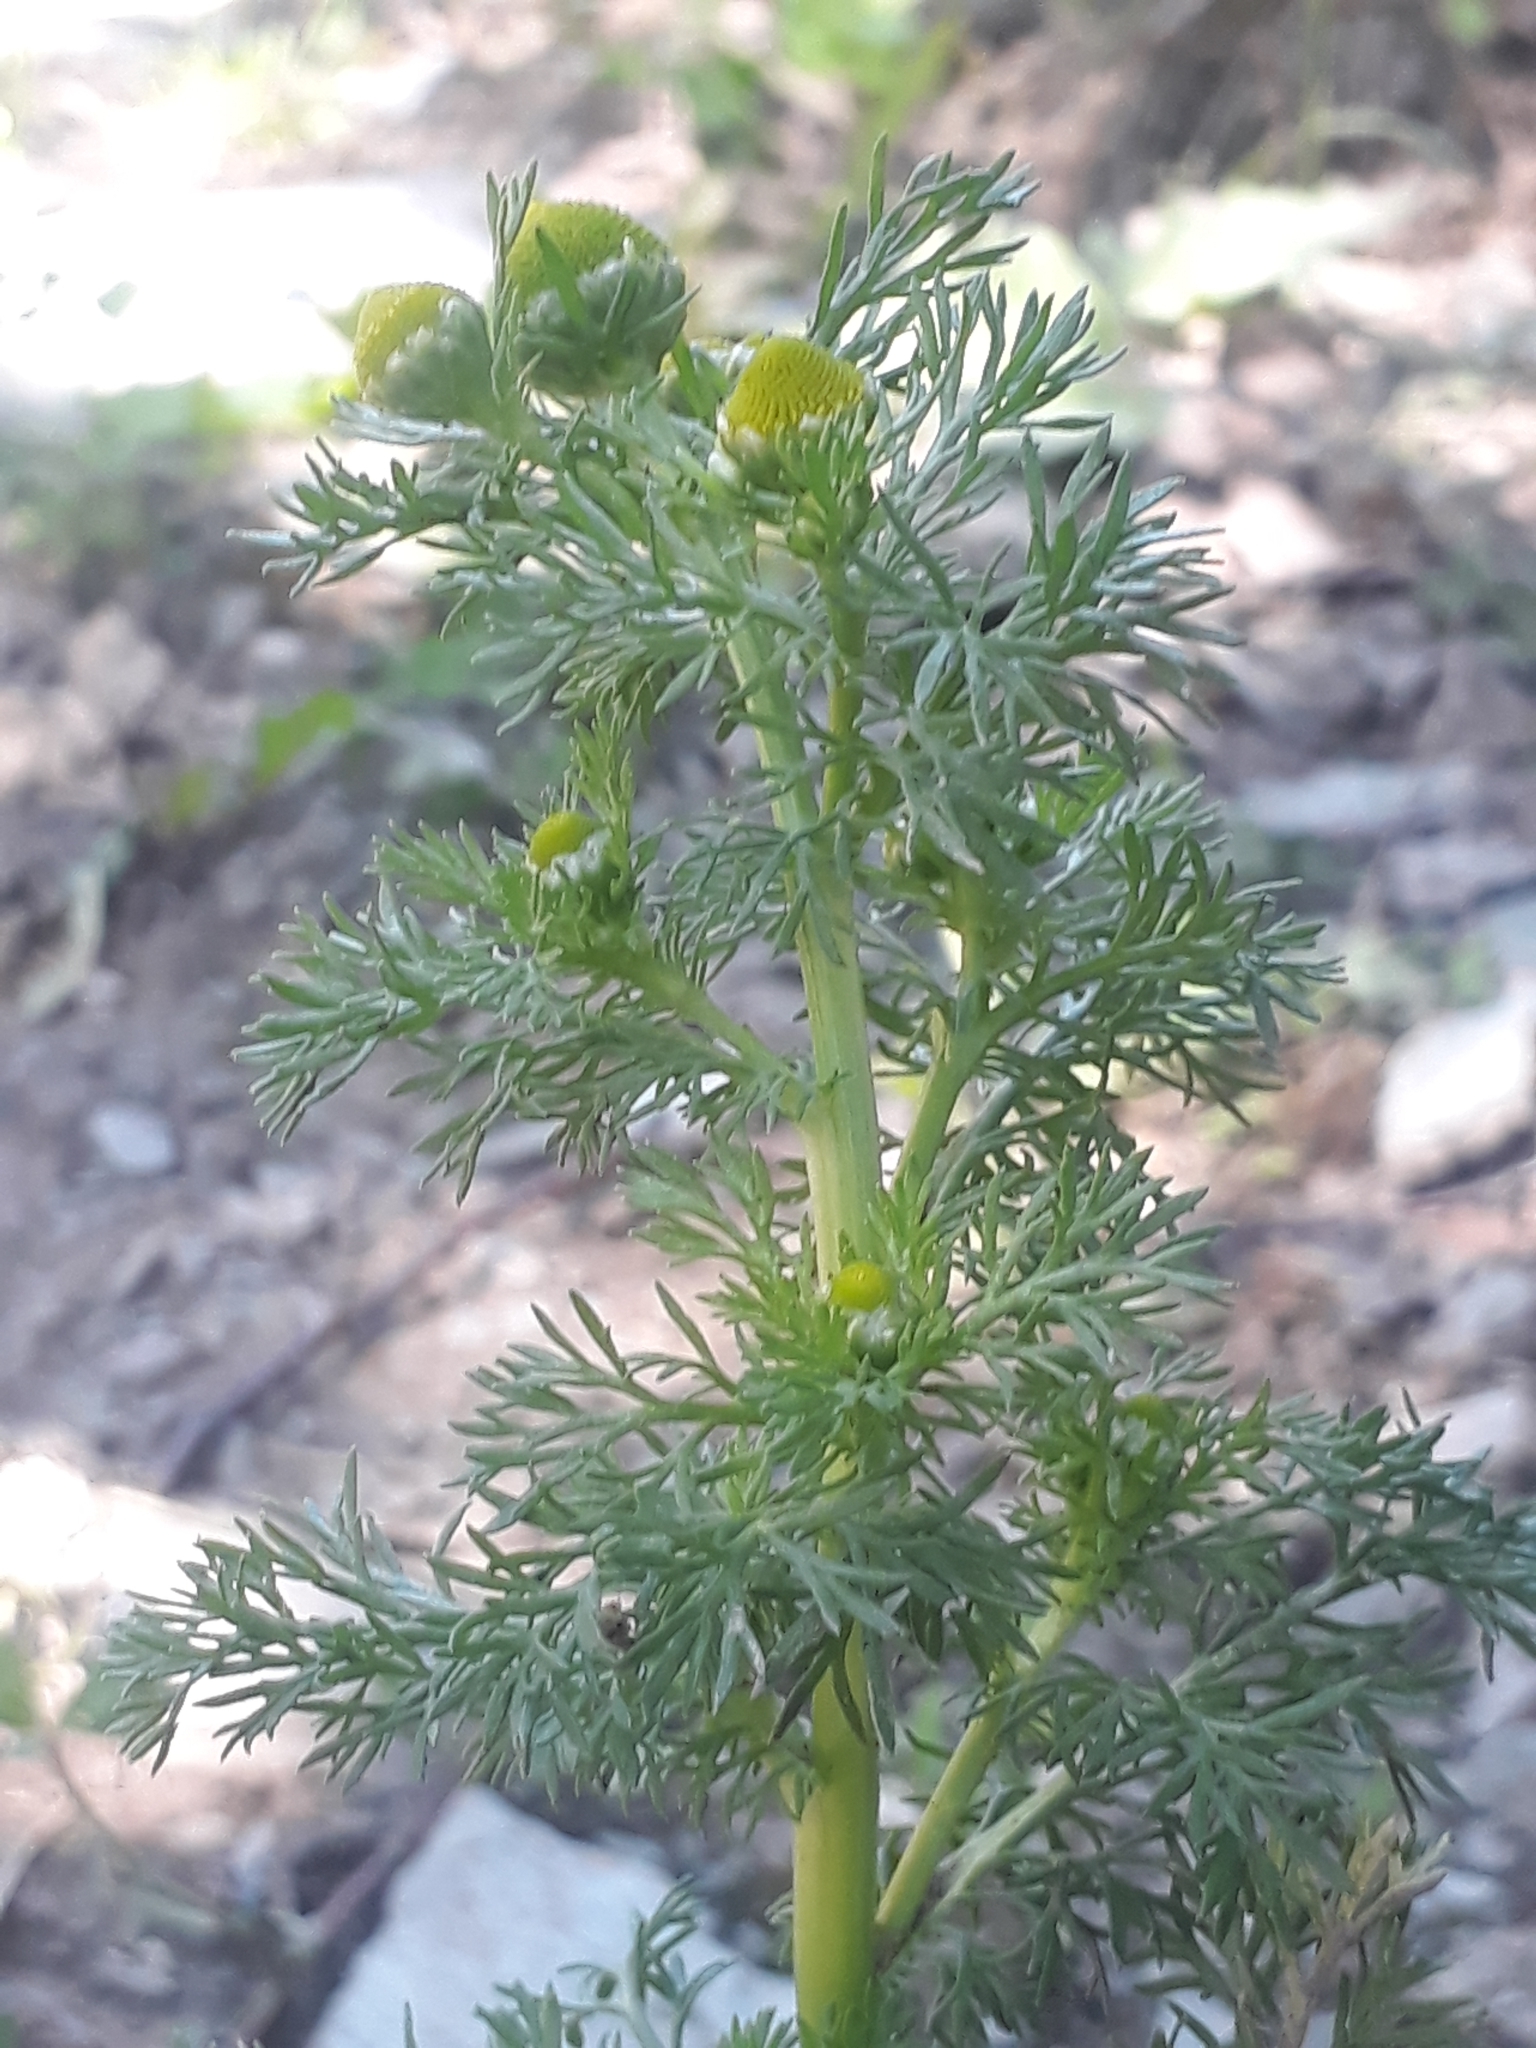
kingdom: Plantae
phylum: Tracheophyta
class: Magnoliopsida
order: Asterales
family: Asteraceae
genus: Matricaria
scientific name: Matricaria discoidea
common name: Disc mayweed
